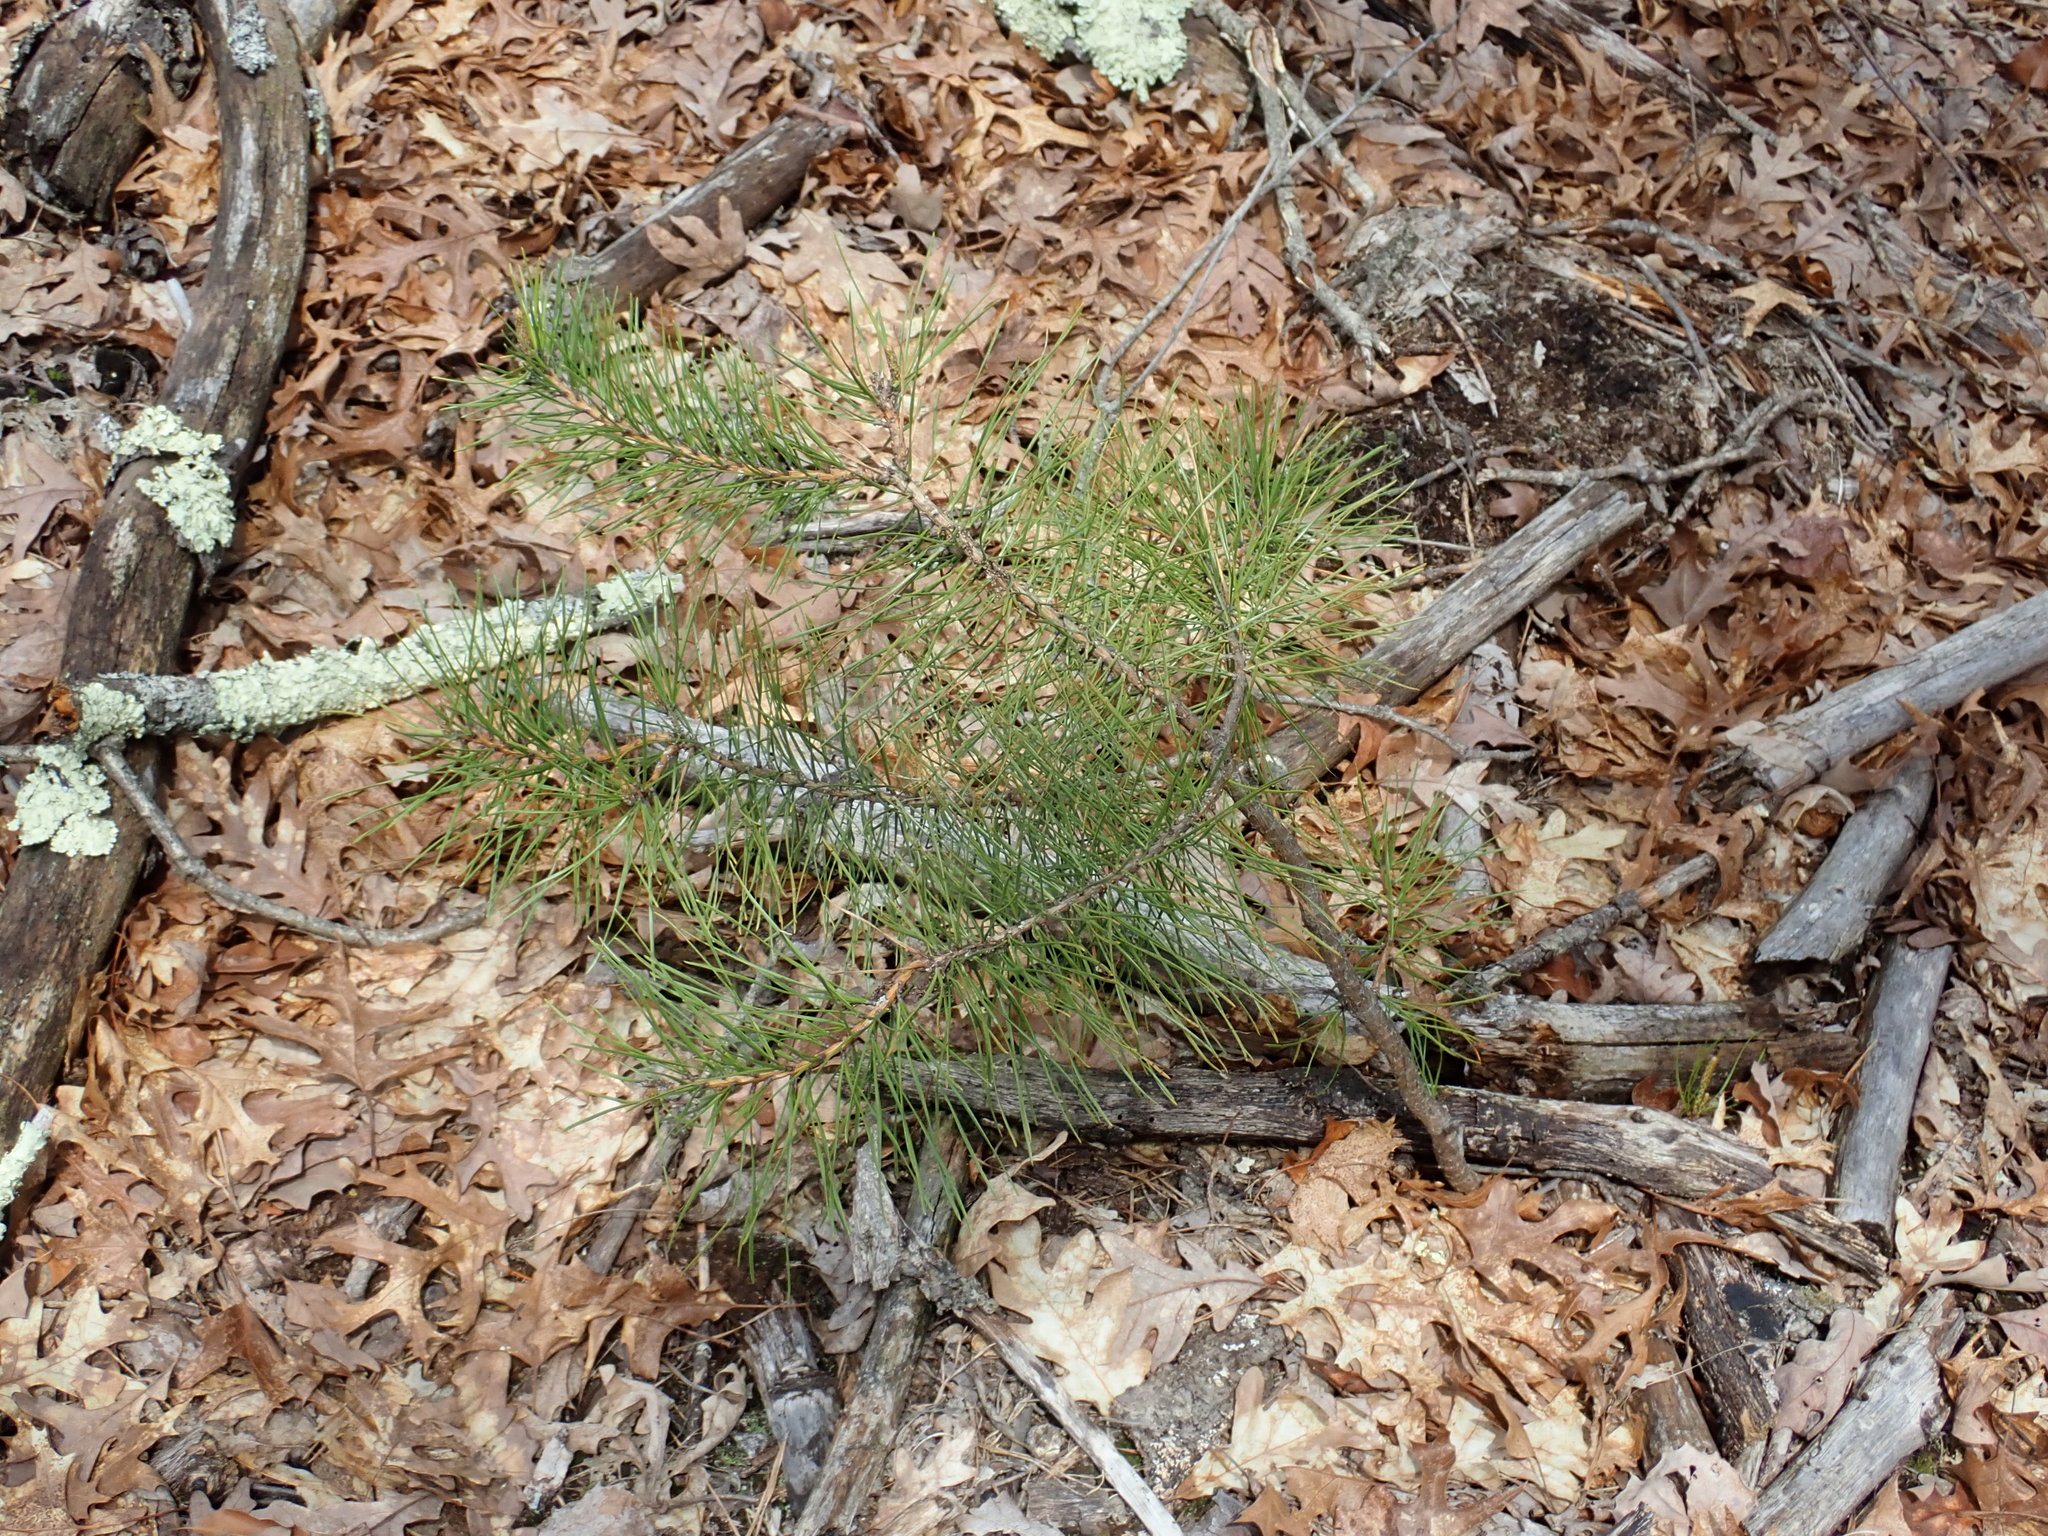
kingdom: Plantae
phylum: Tracheophyta
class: Pinopsida
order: Pinales
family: Pinaceae
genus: Pinus
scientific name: Pinus rigida
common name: Pitch pine
